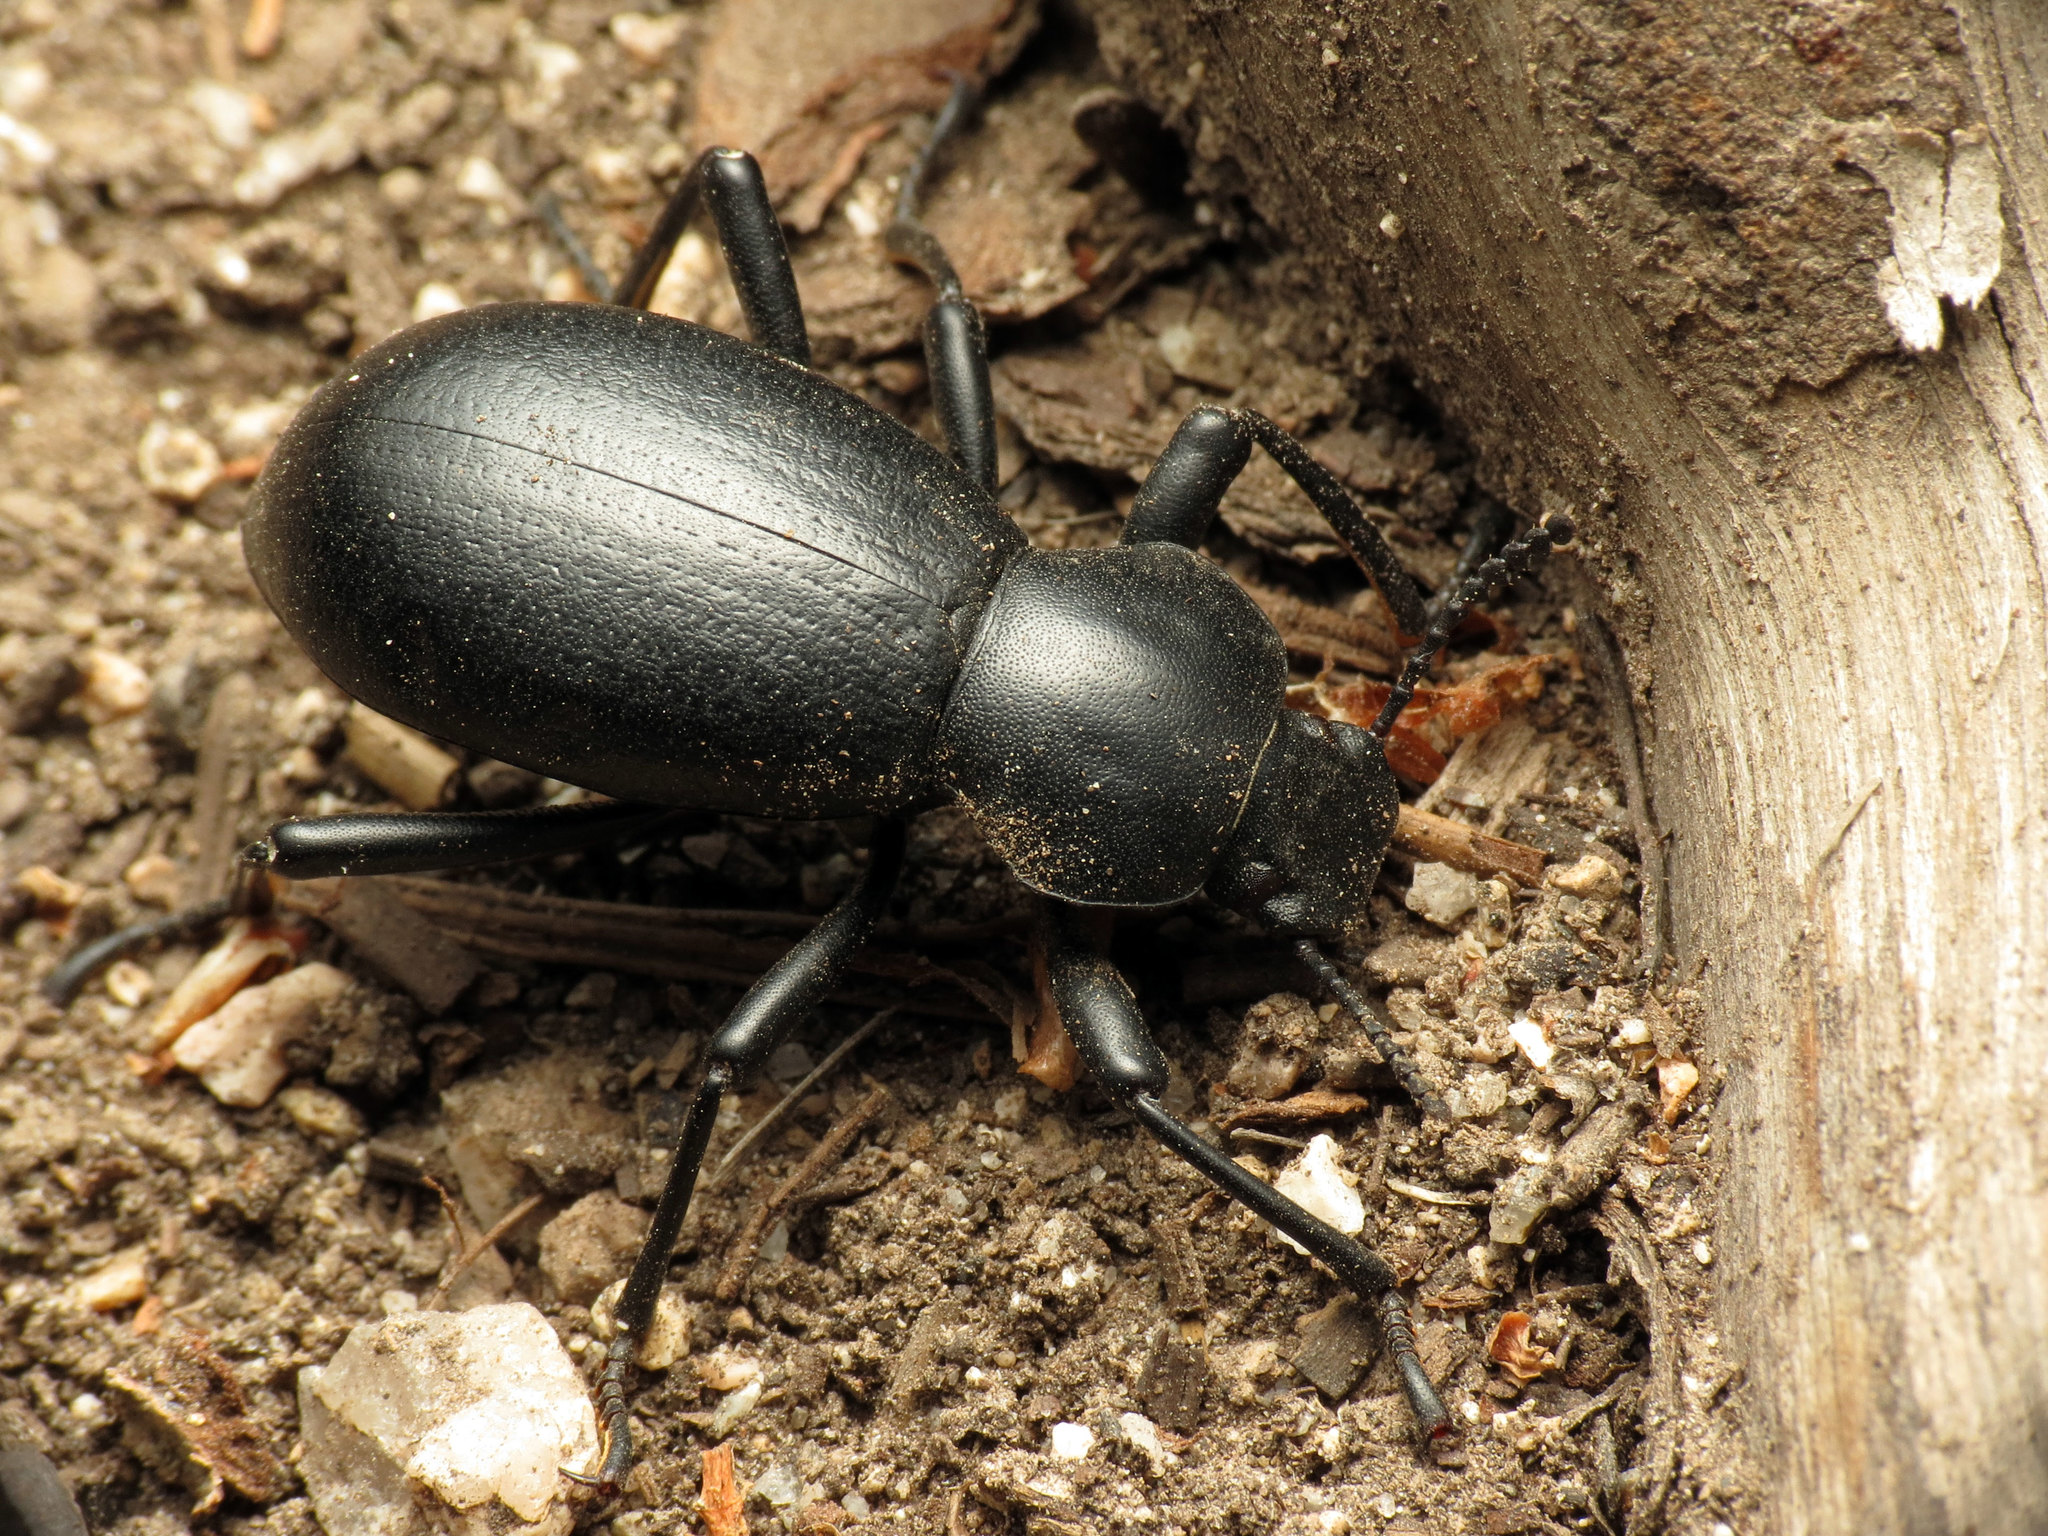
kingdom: Animalia
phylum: Arthropoda
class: Insecta
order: Coleoptera
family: Tenebrionidae
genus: Coelocnemis
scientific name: Coelocnemis dilaticollis
